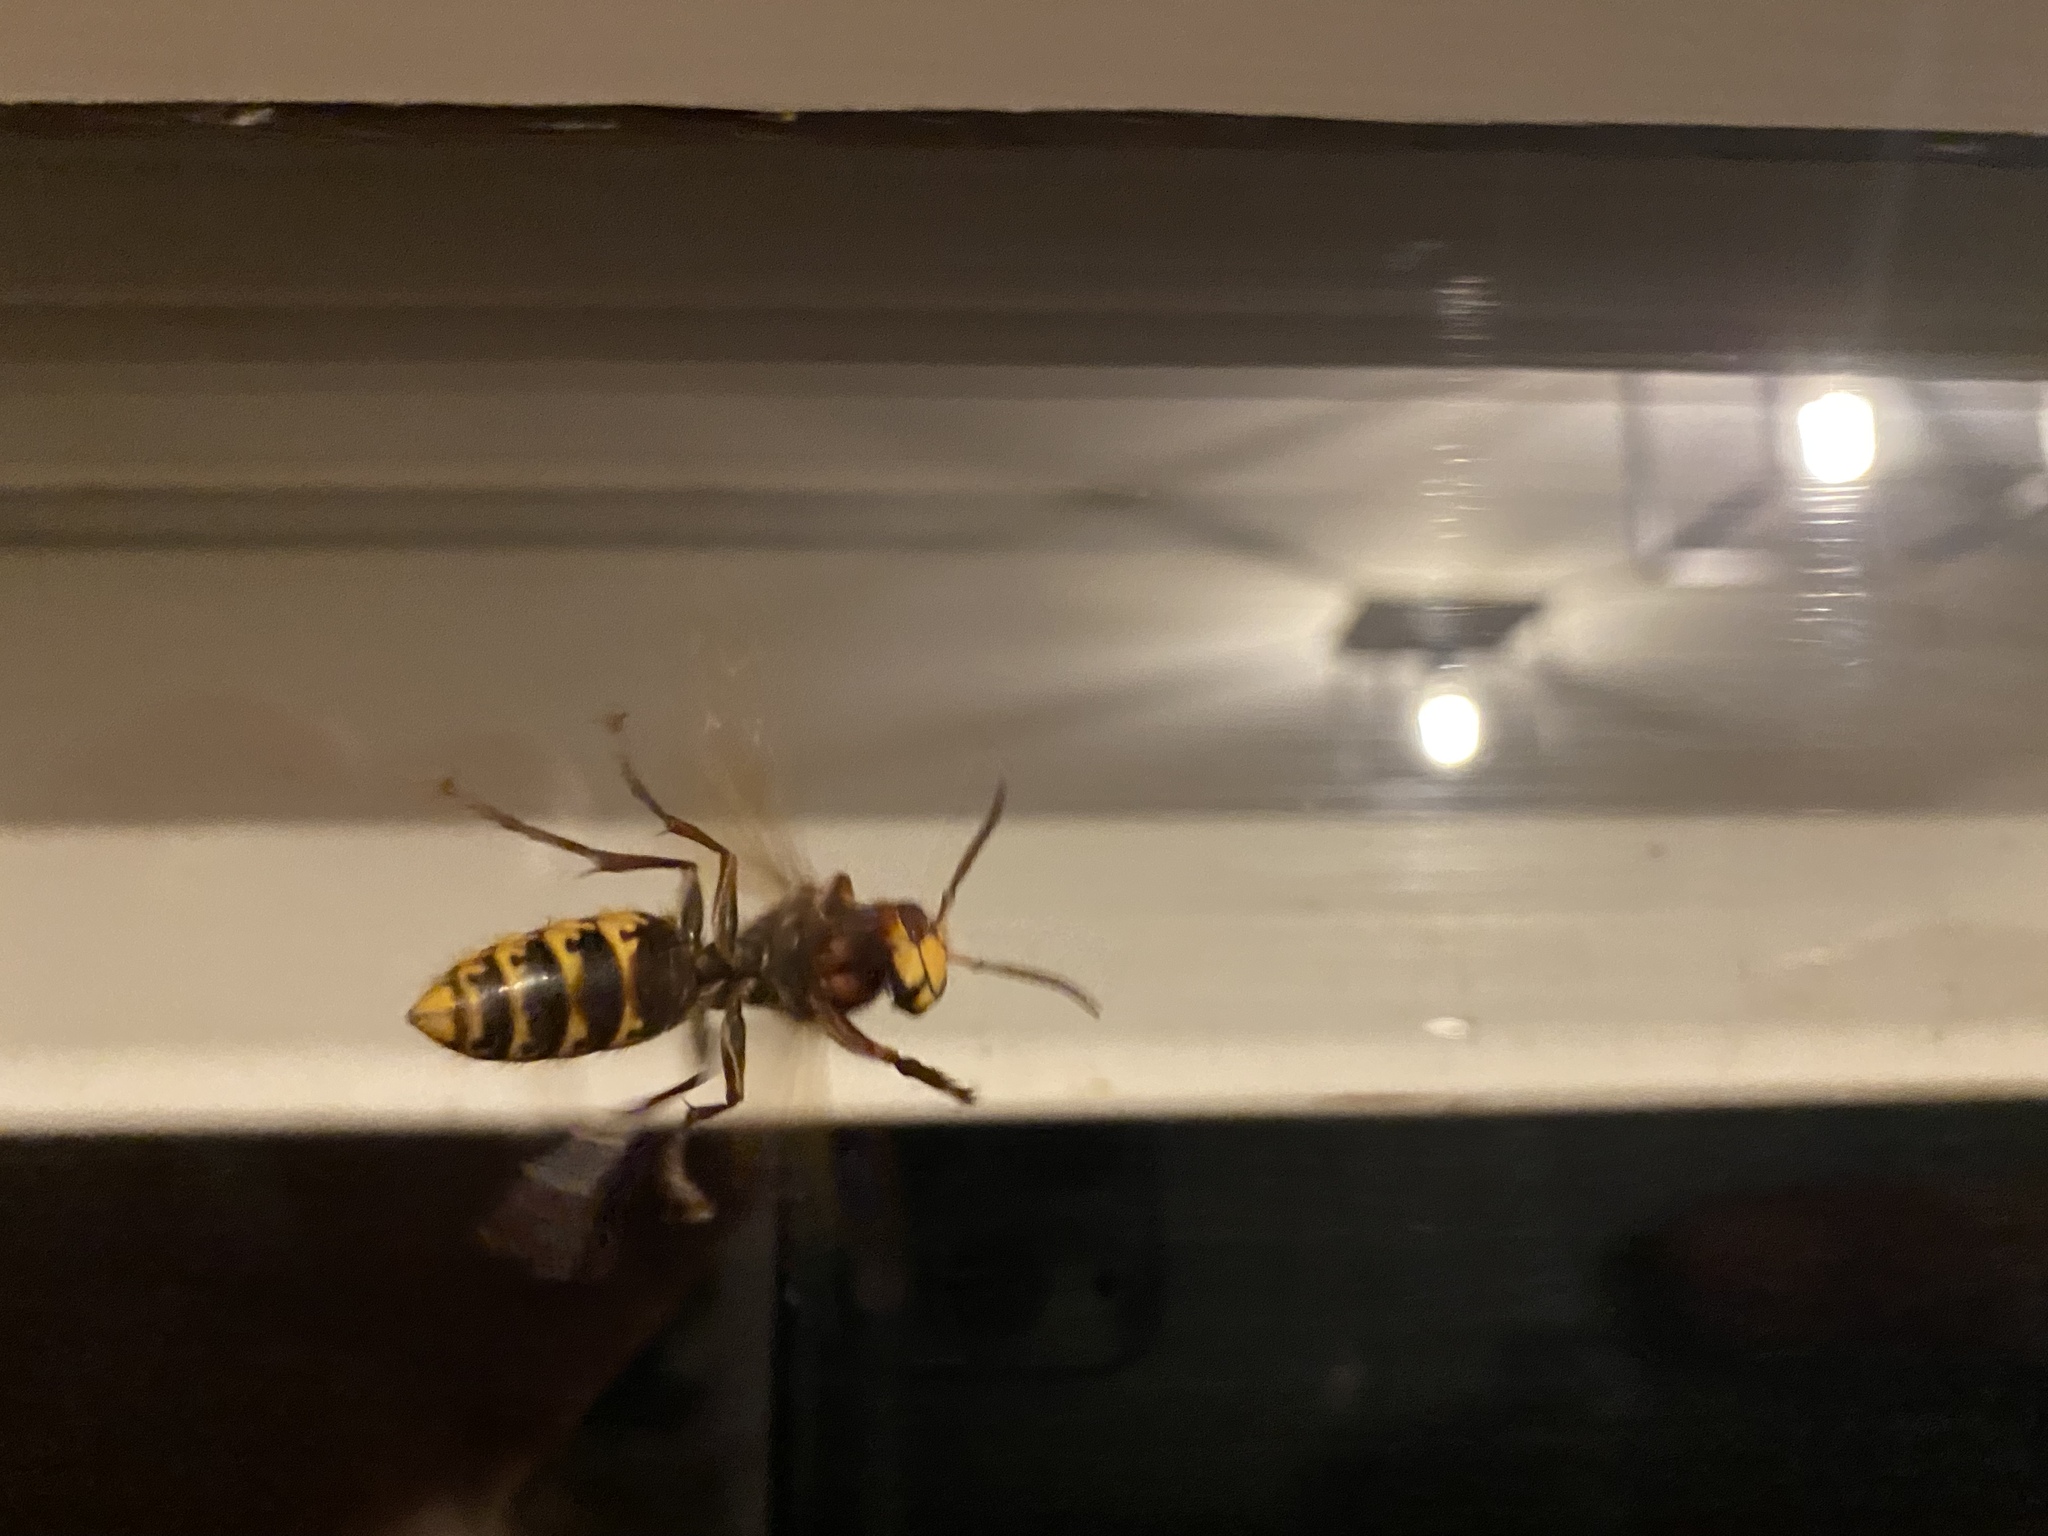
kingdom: Animalia
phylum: Arthropoda
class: Insecta
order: Hymenoptera
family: Vespidae
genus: Vespa
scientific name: Vespa crabro
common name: Hornet
